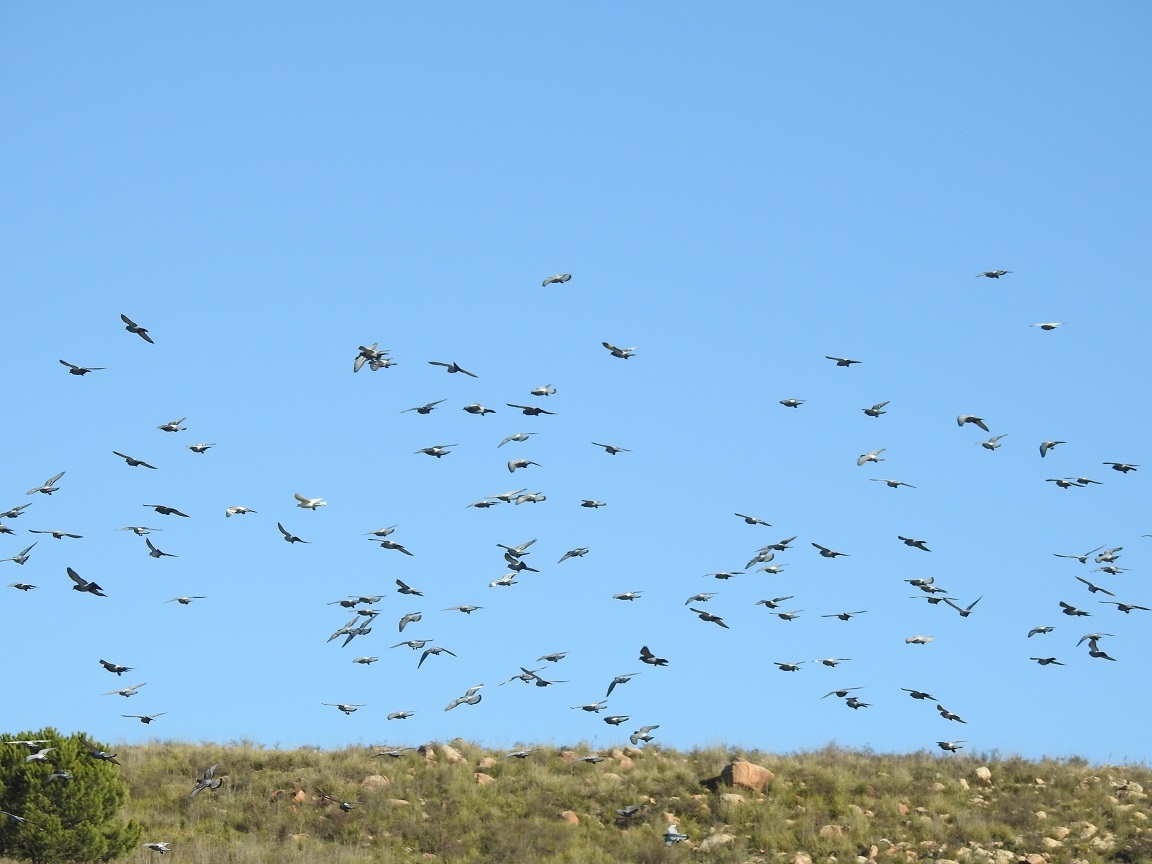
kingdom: Animalia
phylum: Chordata
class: Aves
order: Columbiformes
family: Columbidae
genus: Columba
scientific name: Columba livia
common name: Rock pigeon
